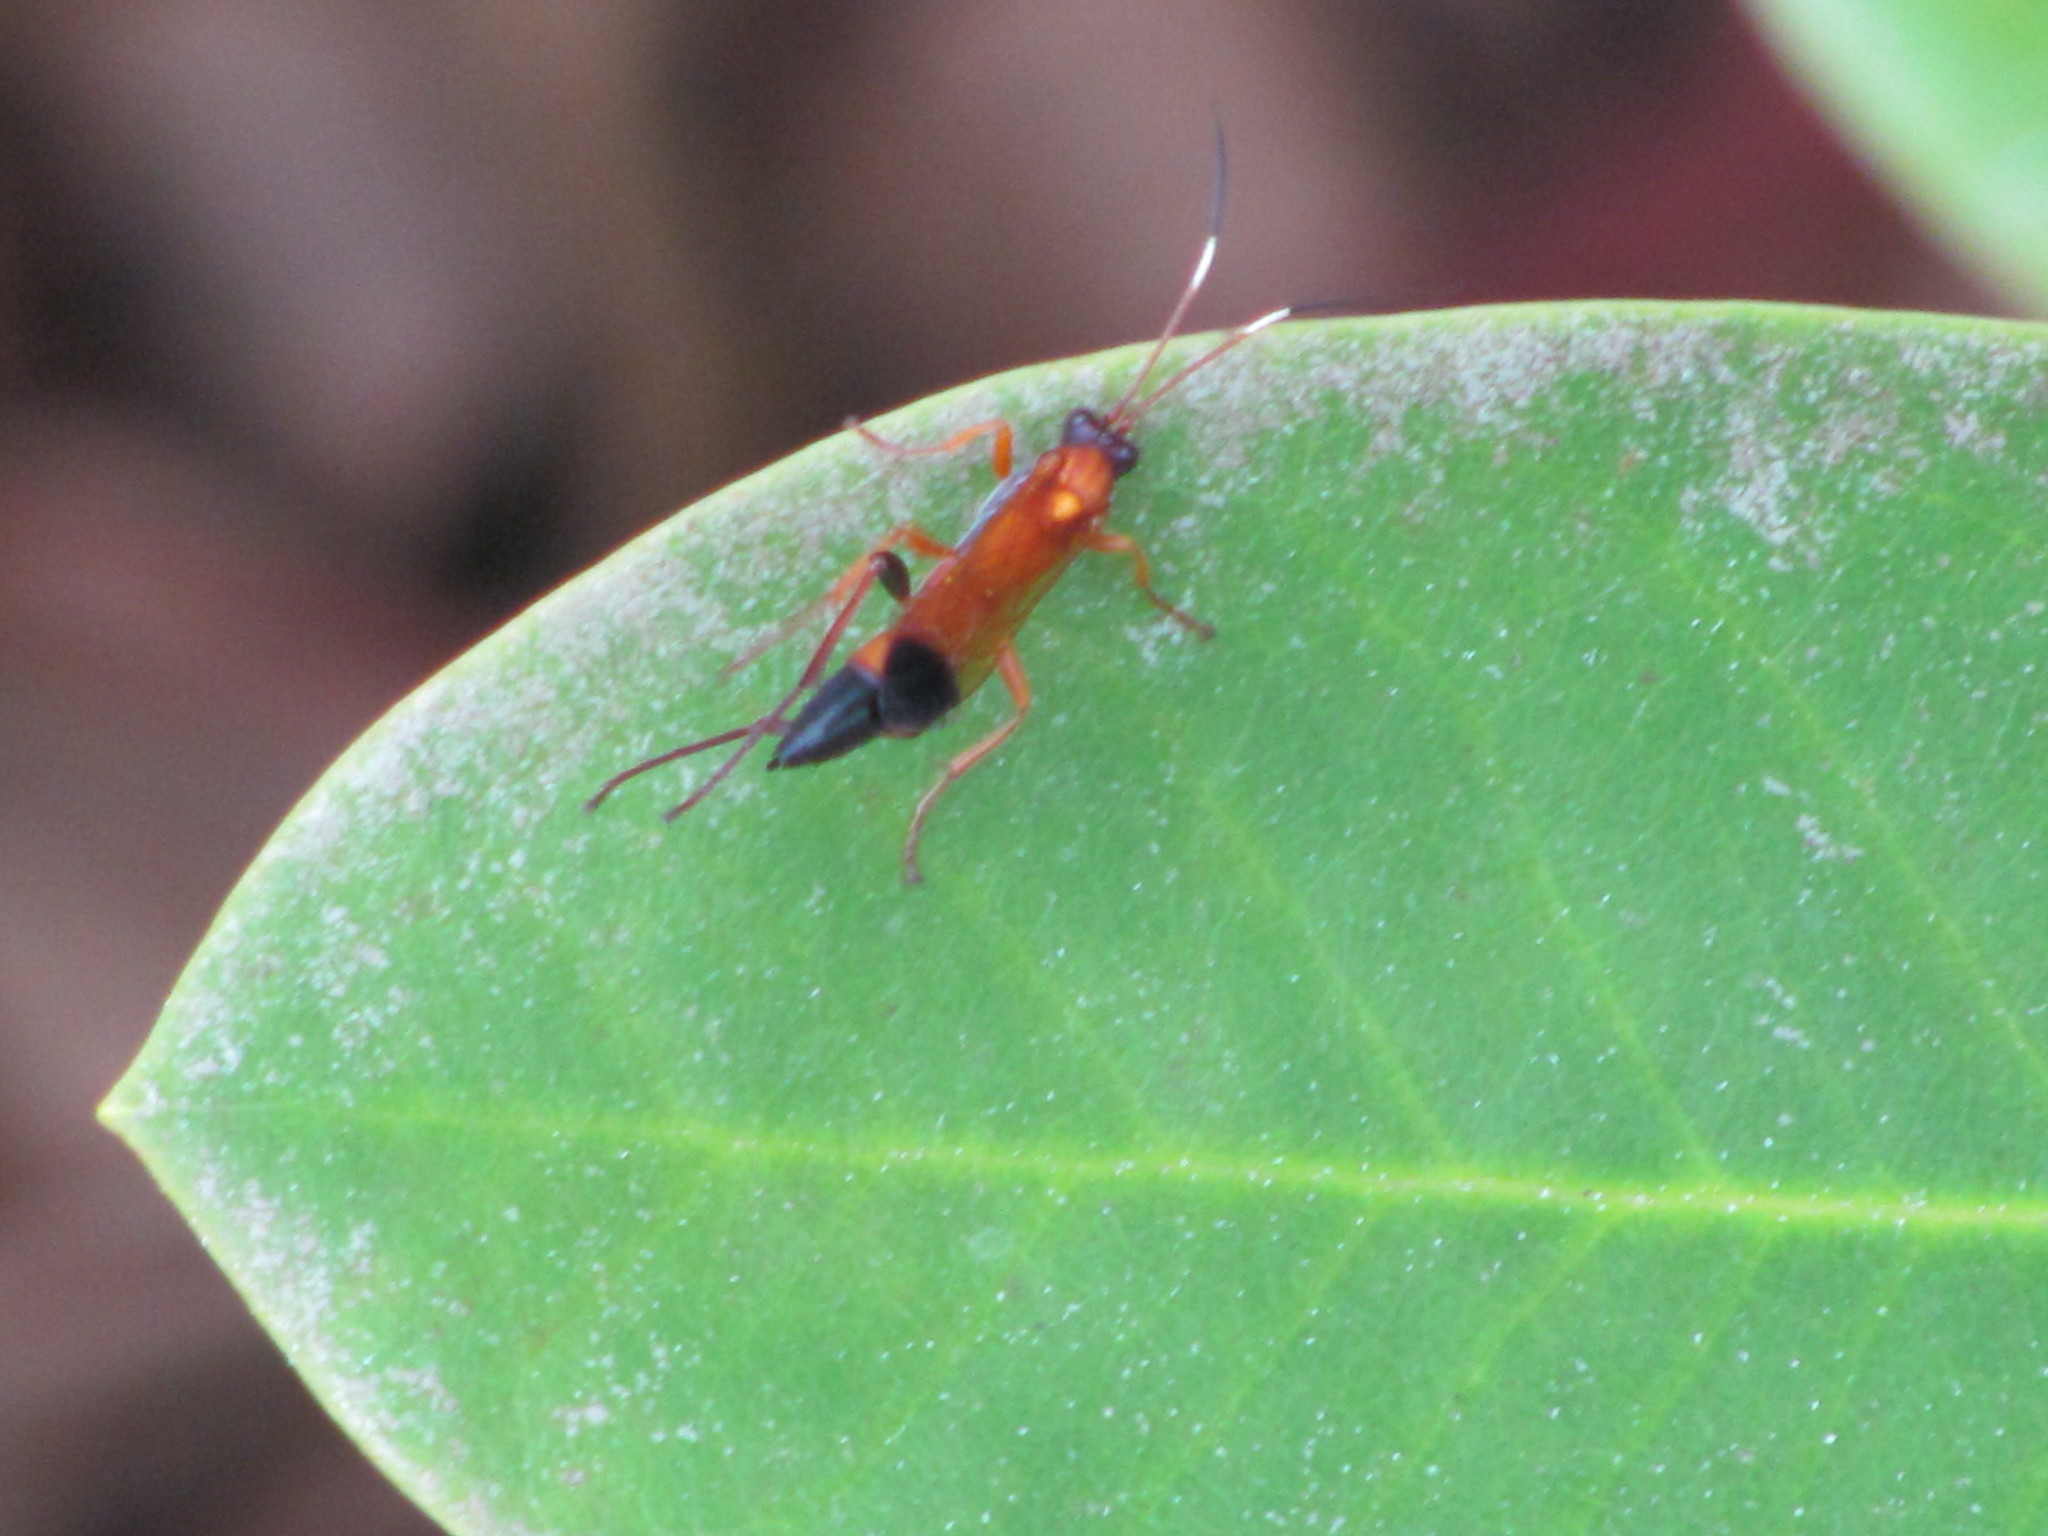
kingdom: Animalia
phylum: Arthropoda
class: Insecta
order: Hymenoptera
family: Ichneumonidae
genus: Ctenochares
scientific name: Ctenochares bicolorus
